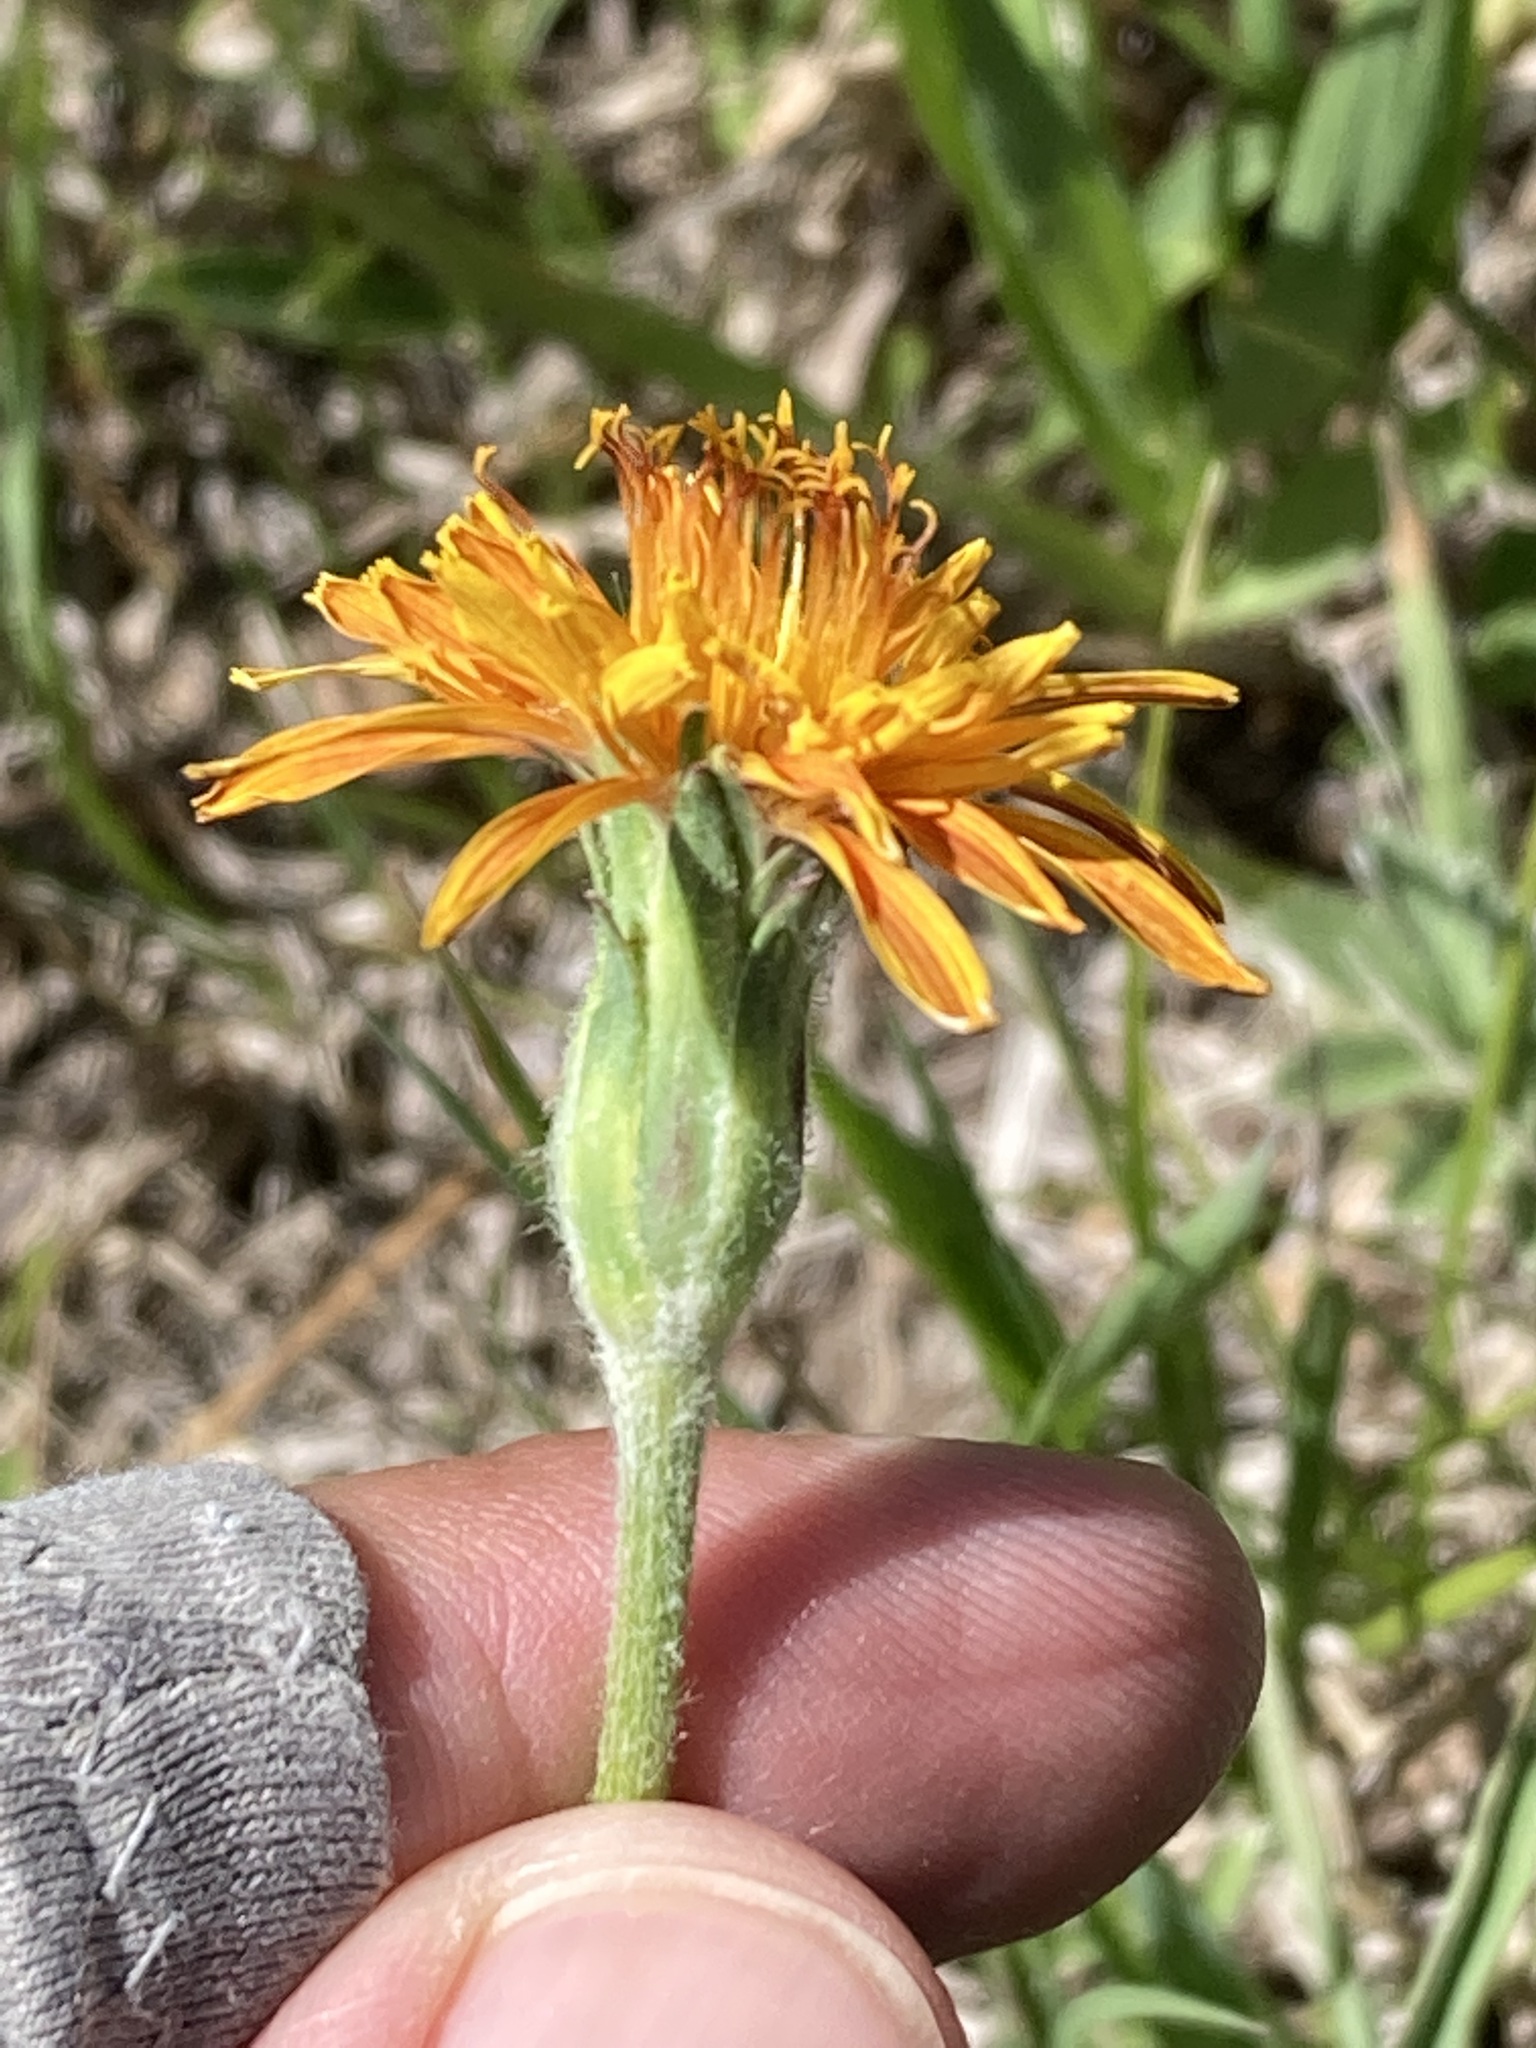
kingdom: Plantae
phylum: Tracheophyta
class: Magnoliopsida
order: Asterales
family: Asteraceae
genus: Agoseris
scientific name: Agoseris aurantiaca
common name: Mountain agoseris
